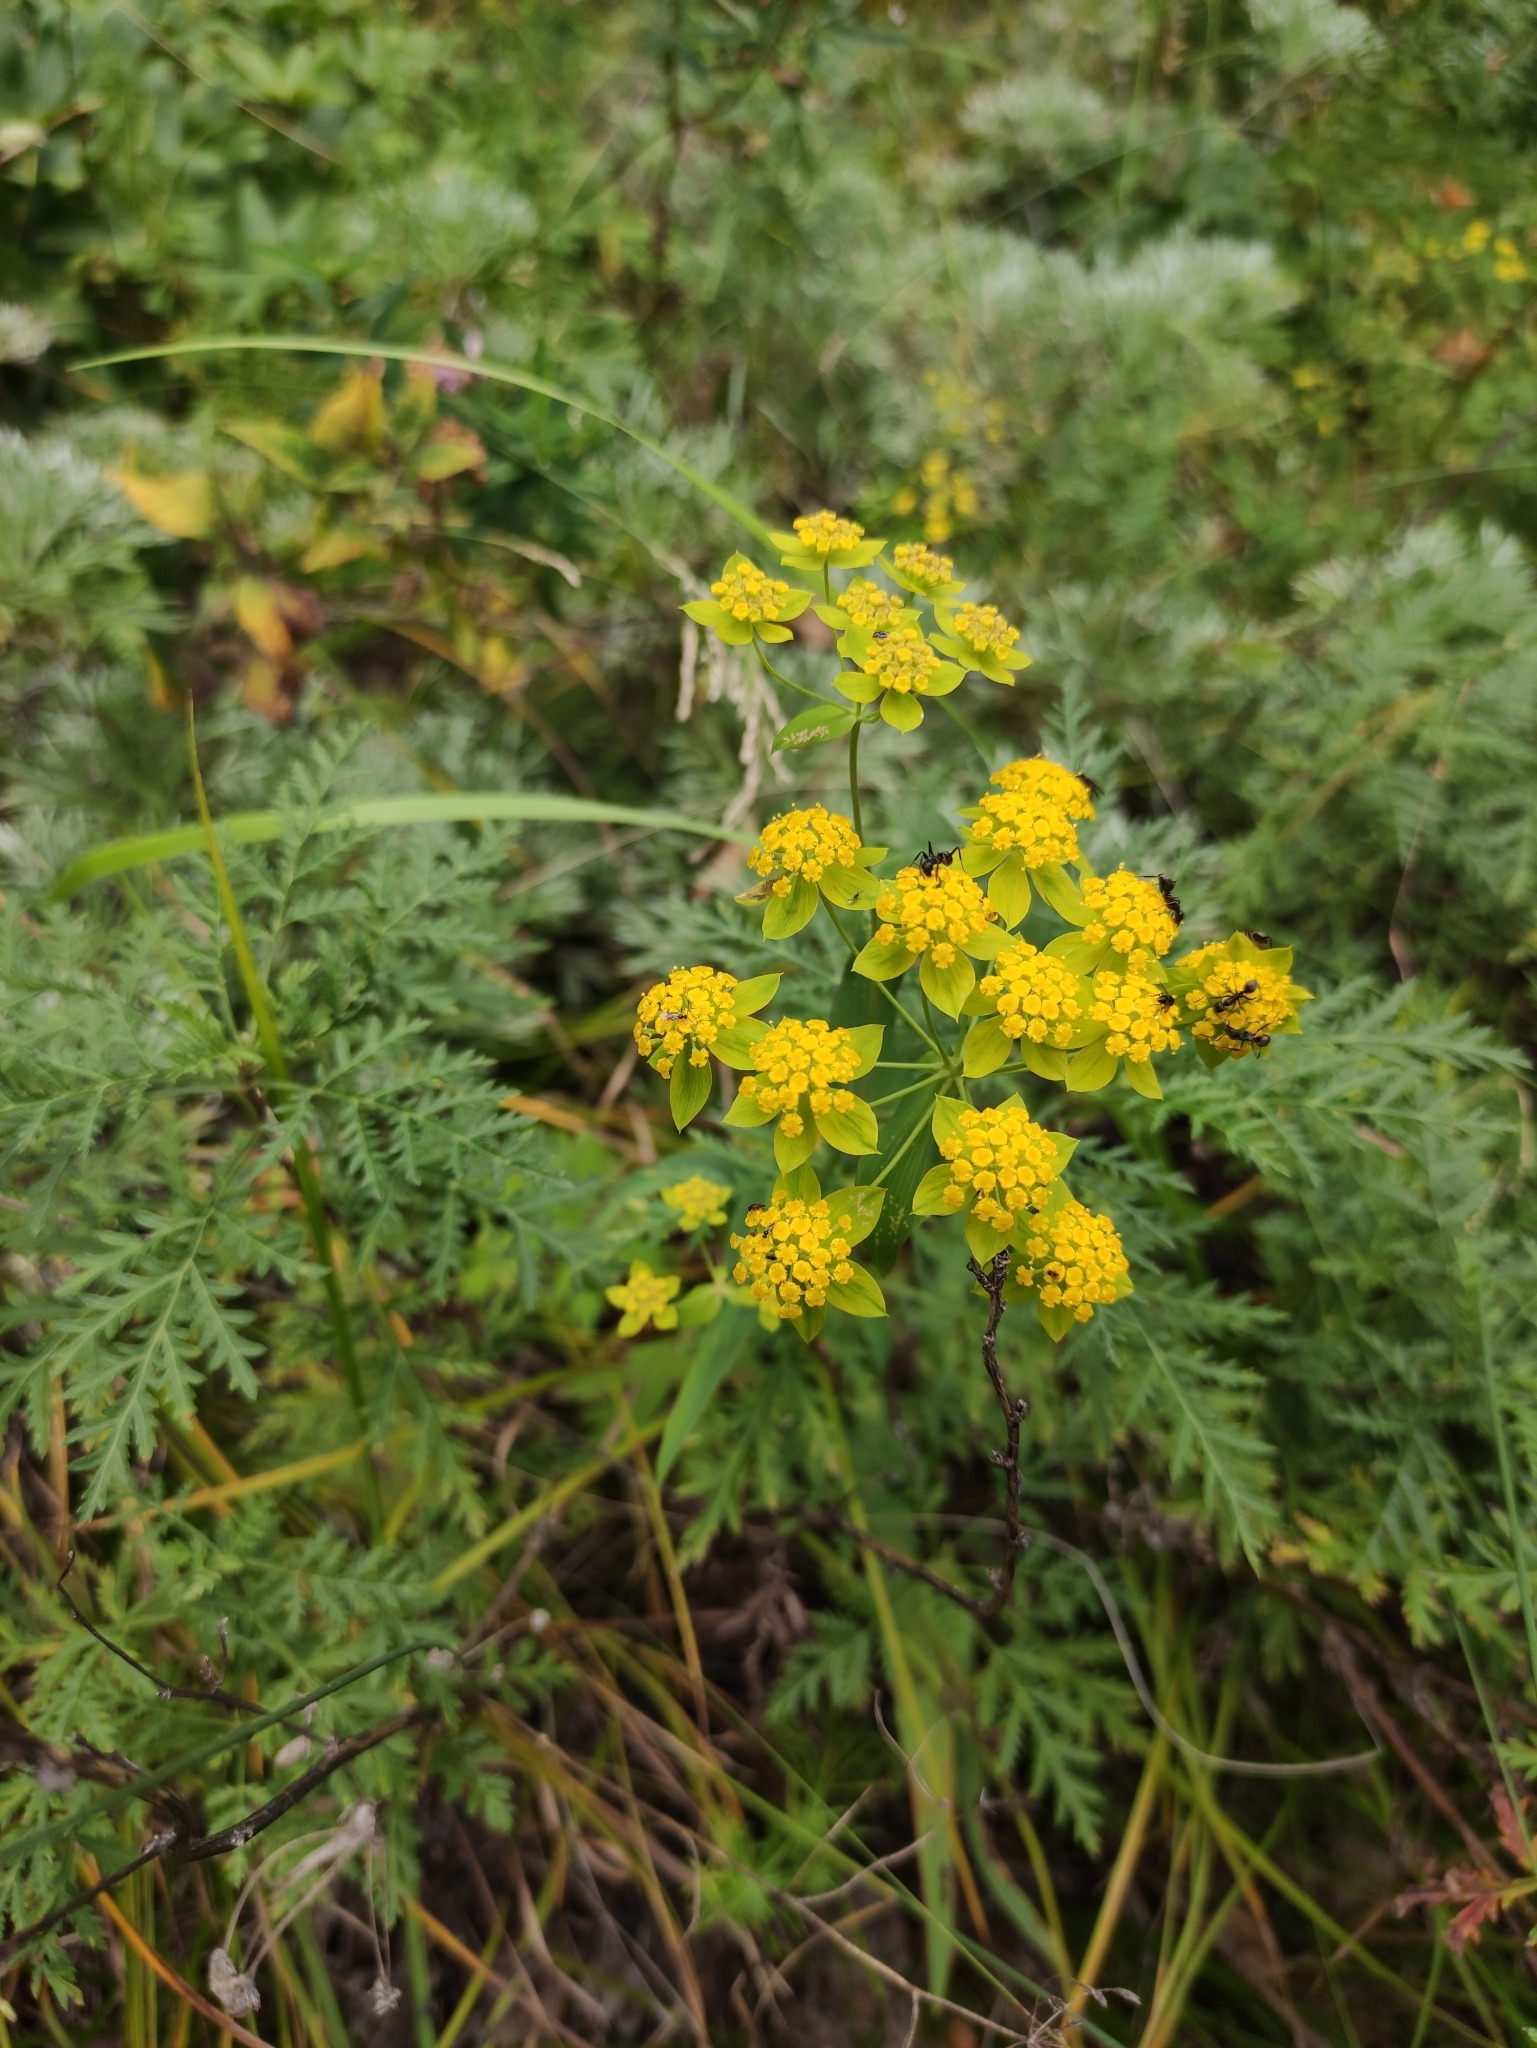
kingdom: Plantae
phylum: Tracheophyta
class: Magnoliopsida
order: Apiales
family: Apiaceae
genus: Bupleurum
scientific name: Bupleurum multinerve
